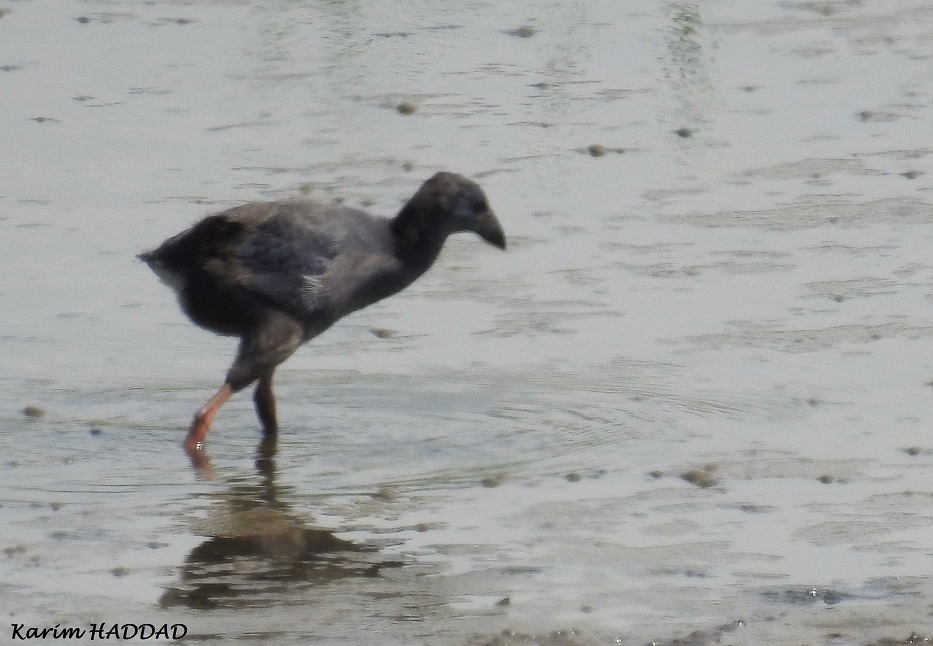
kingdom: Animalia
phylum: Chordata
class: Aves
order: Gruiformes
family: Rallidae
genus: Porphyrio
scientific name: Porphyrio porphyrio
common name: Purple swamphen
